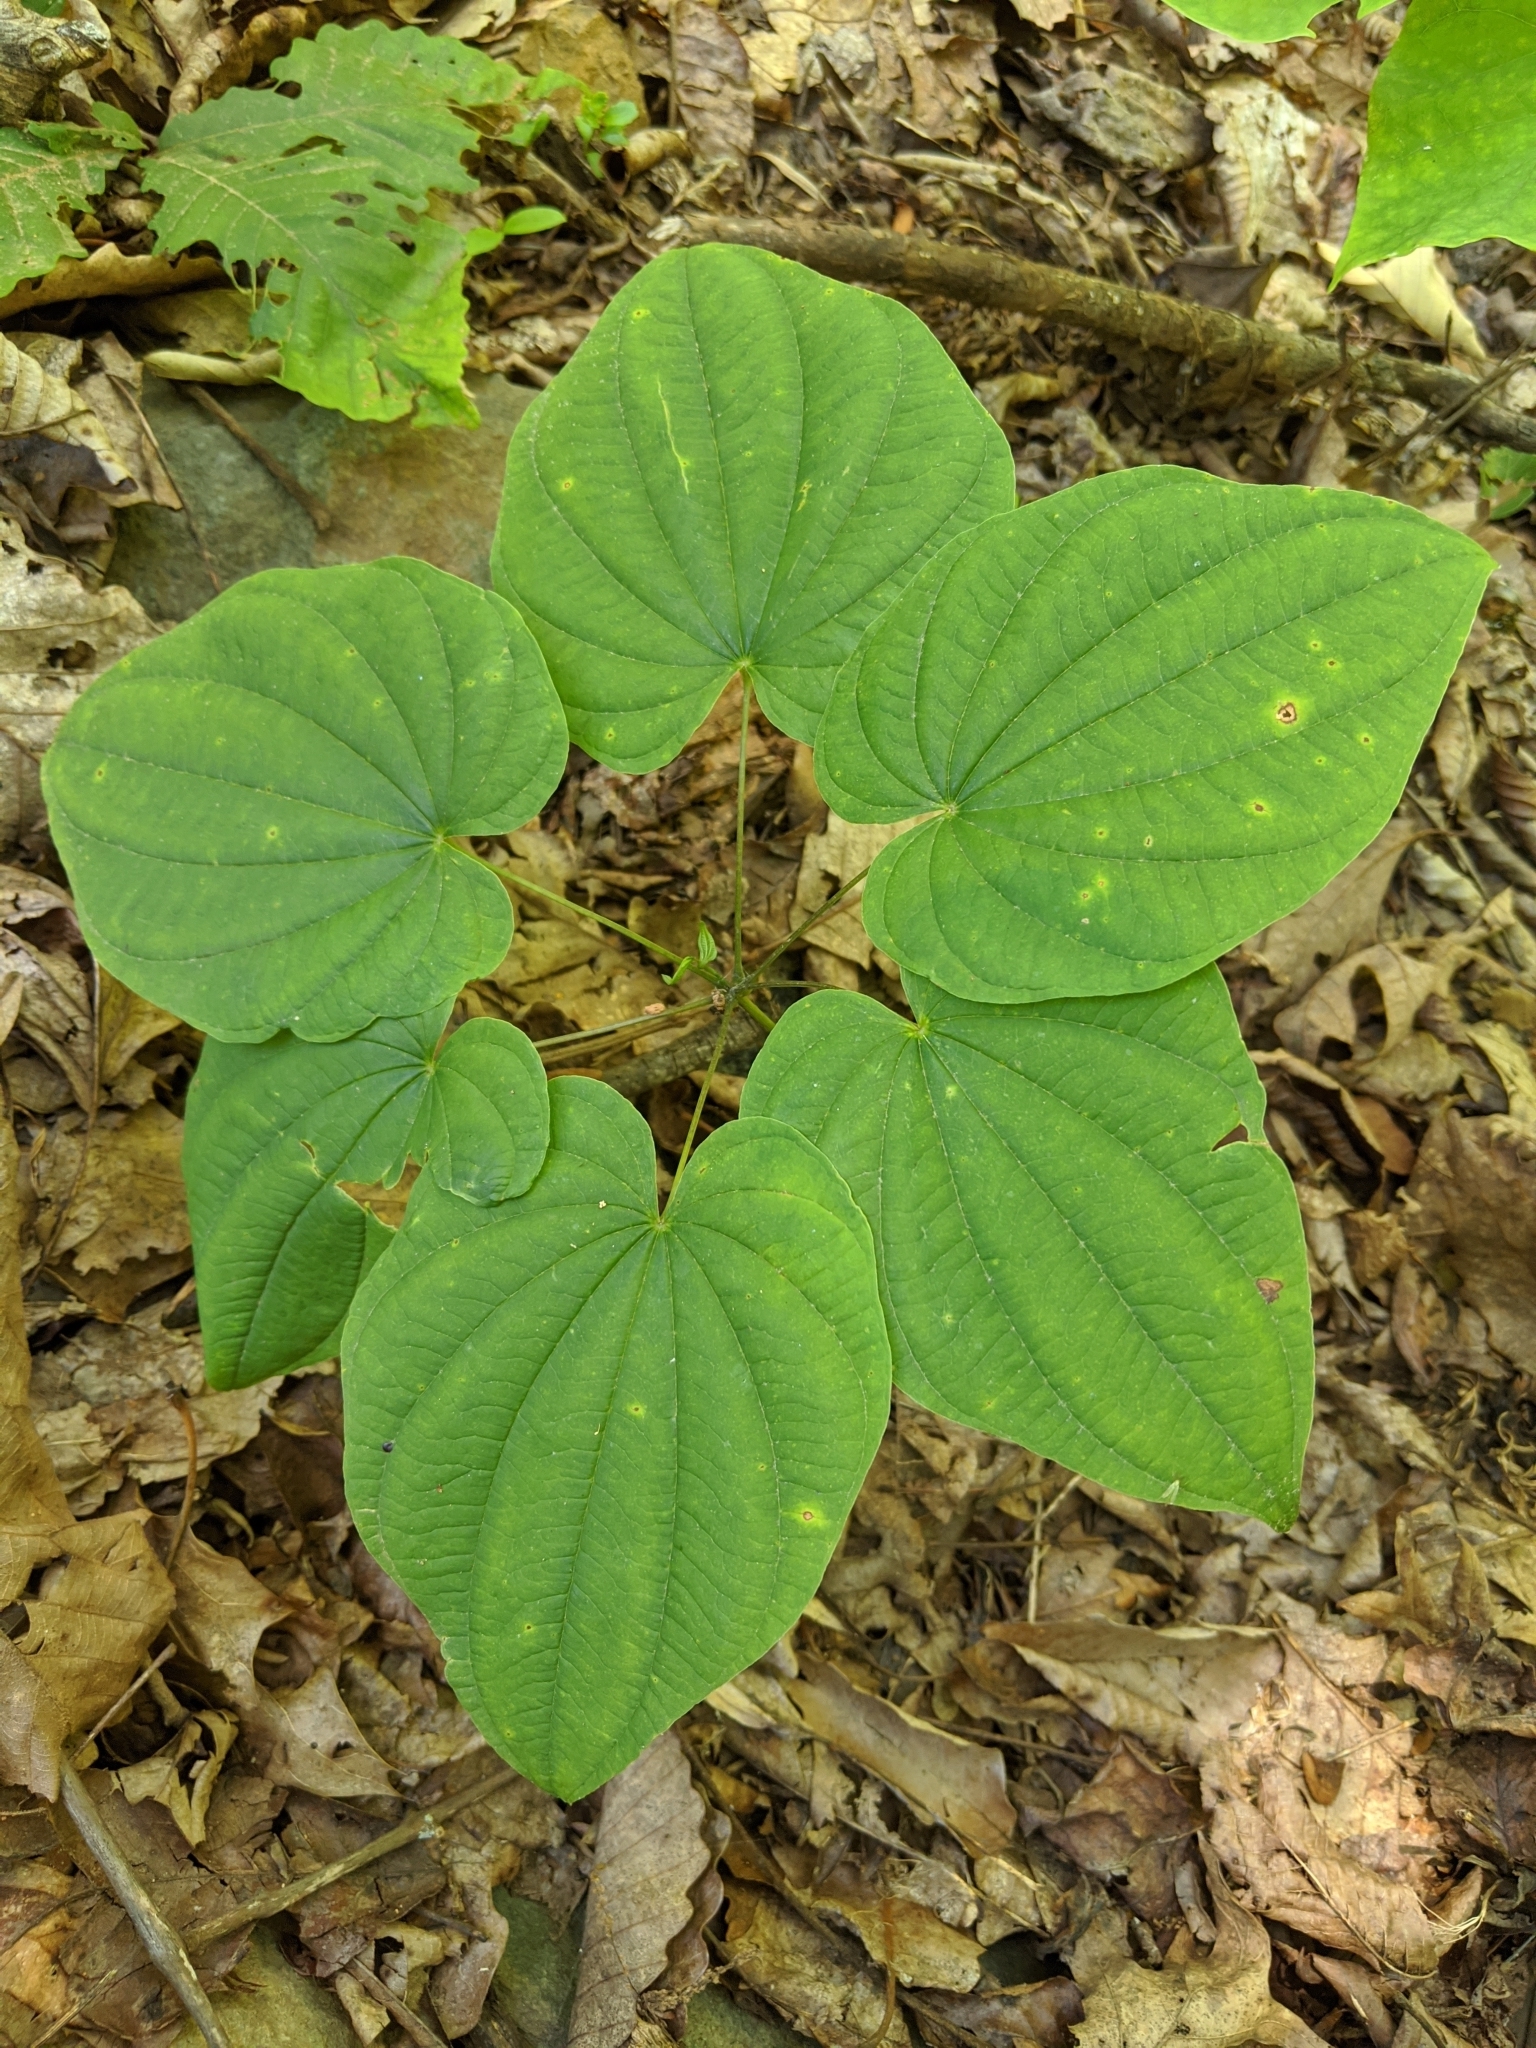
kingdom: Plantae
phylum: Tracheophyta
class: Liliopsida
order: Dioscoreales
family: Dioscoreaceae
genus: Dioscorea
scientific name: Dioscorea villosa
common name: Wild yam
